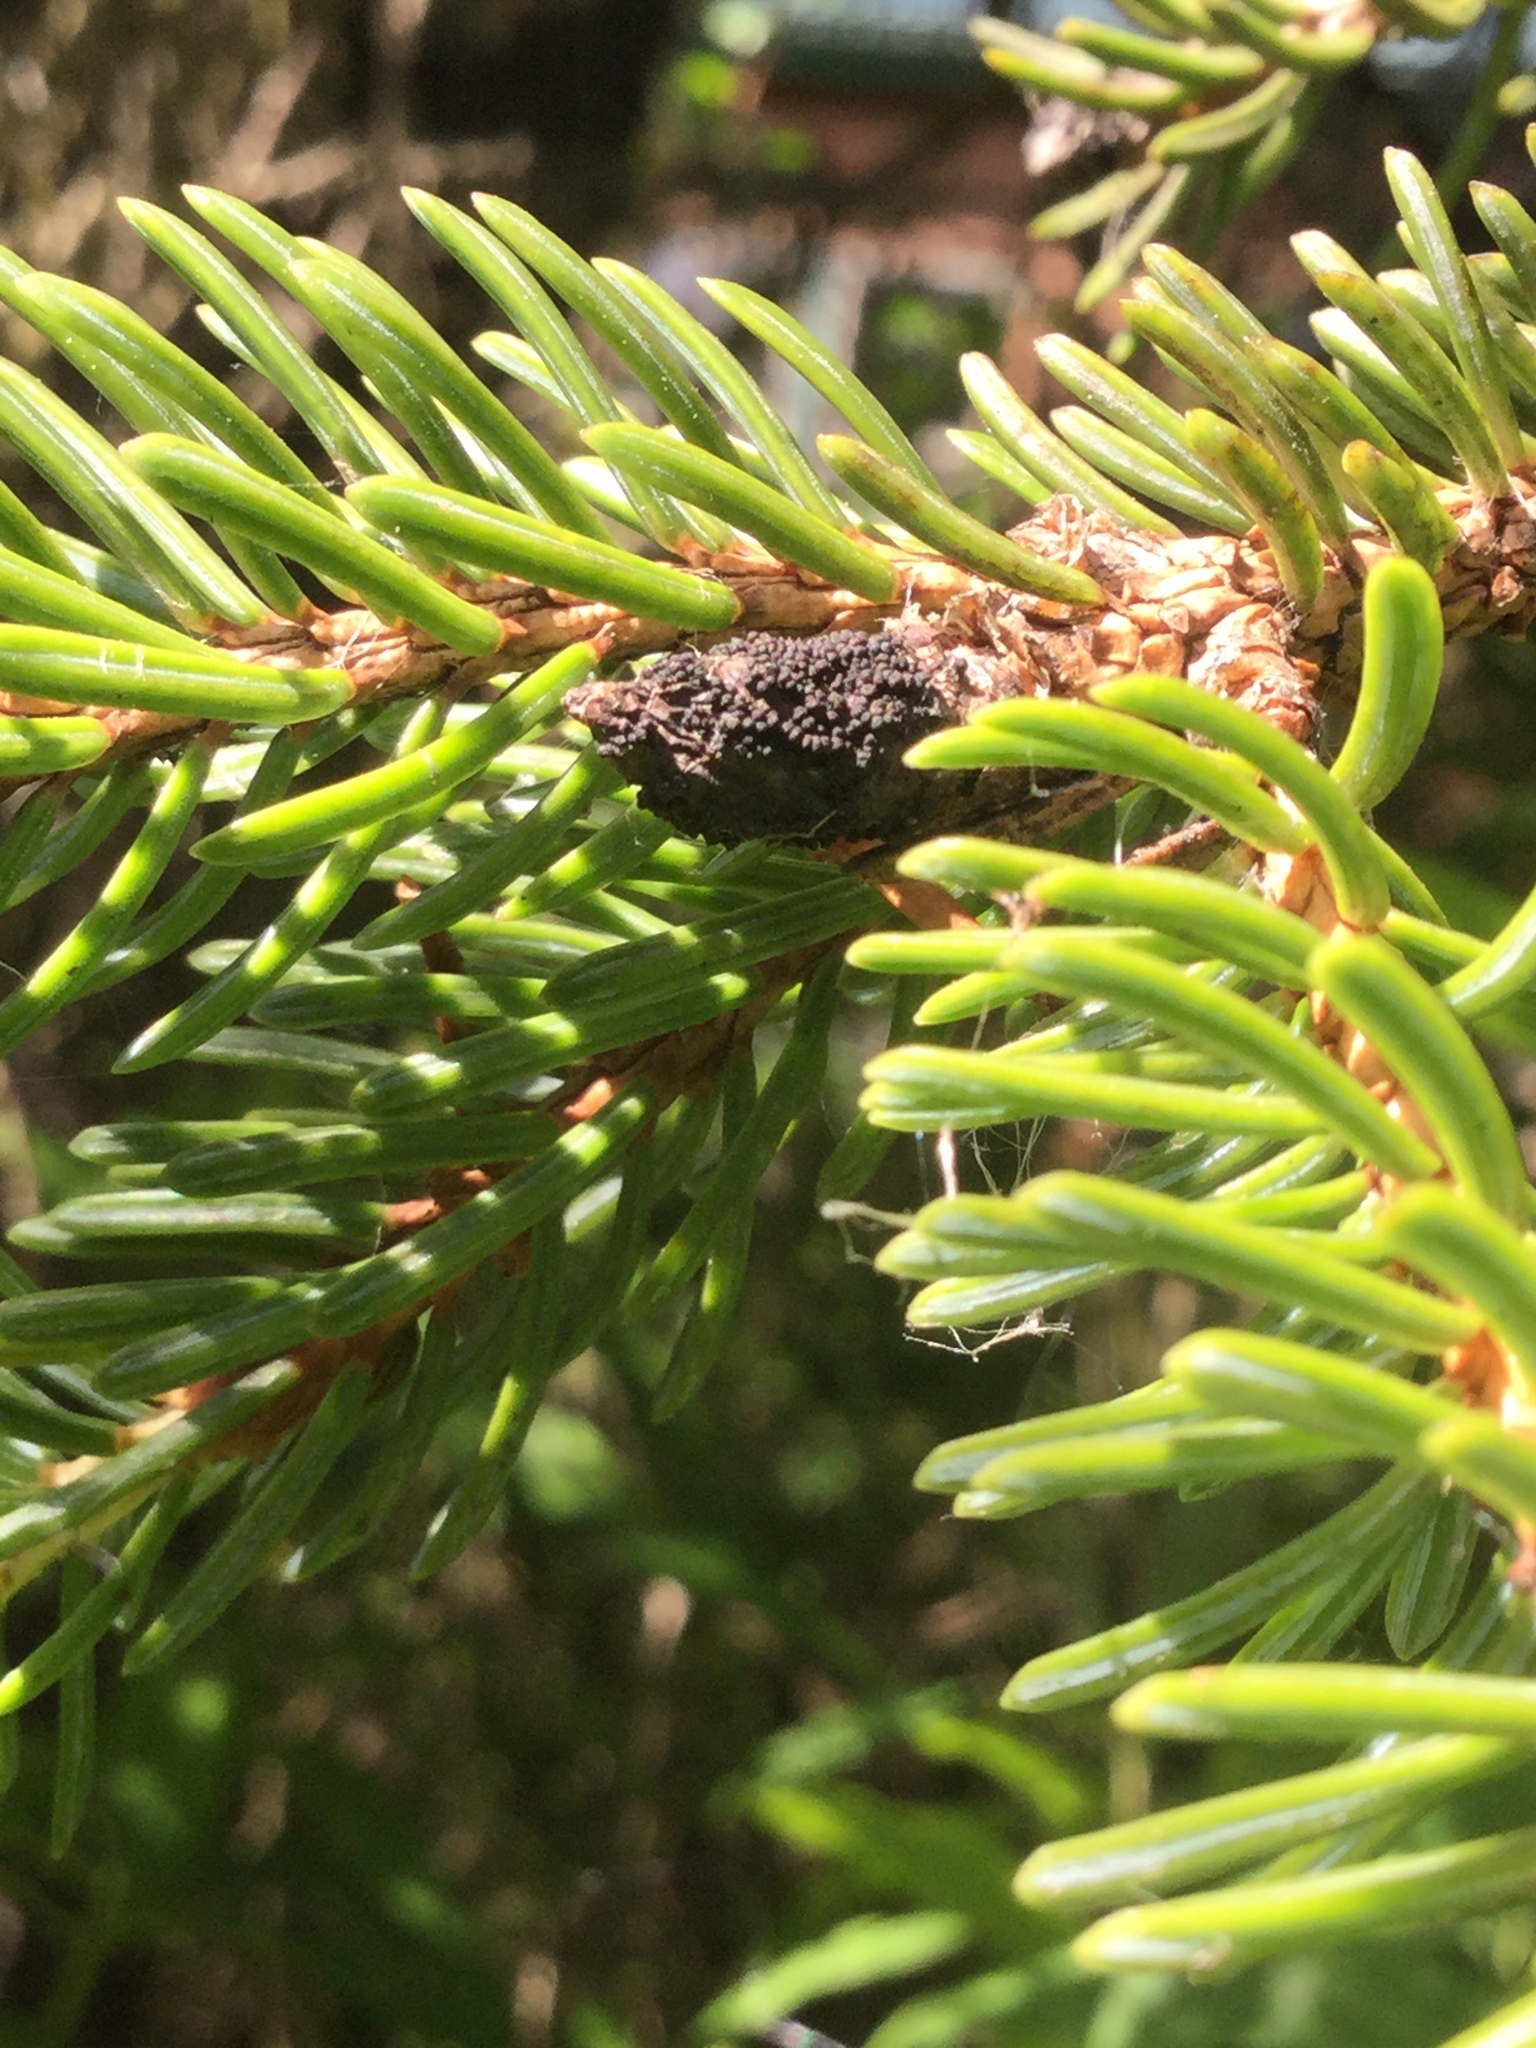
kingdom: Fungi
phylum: Ascomycota
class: Dothideomycetes
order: Pleosporales
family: Cucurbitariaceae
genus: Cucurbitaria
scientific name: Cucurbitaria piceae
